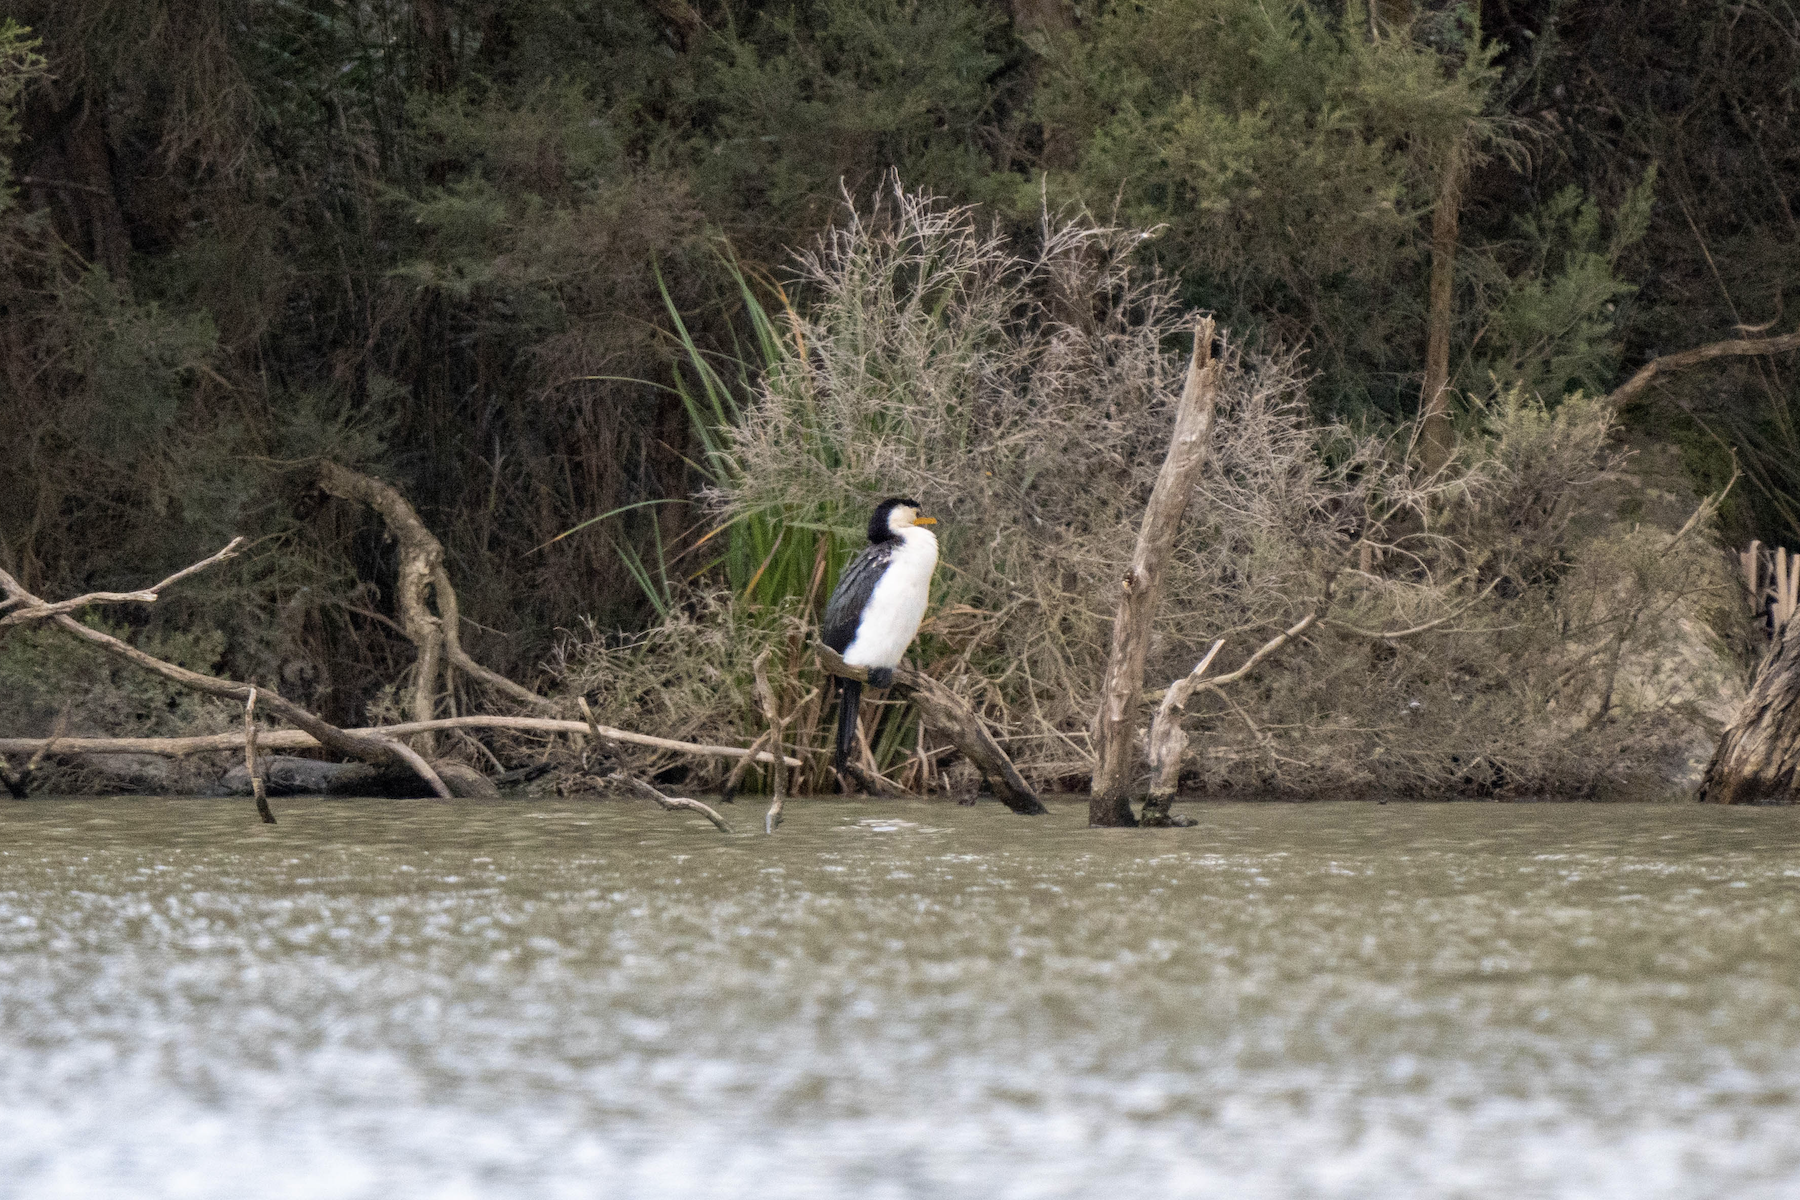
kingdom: Animalia
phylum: Chordata
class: Aves
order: Suliformes
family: Phalacrocoracidae
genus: Microcarbo
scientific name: Microcarbo melanoleucos
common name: Little pied cormorant
